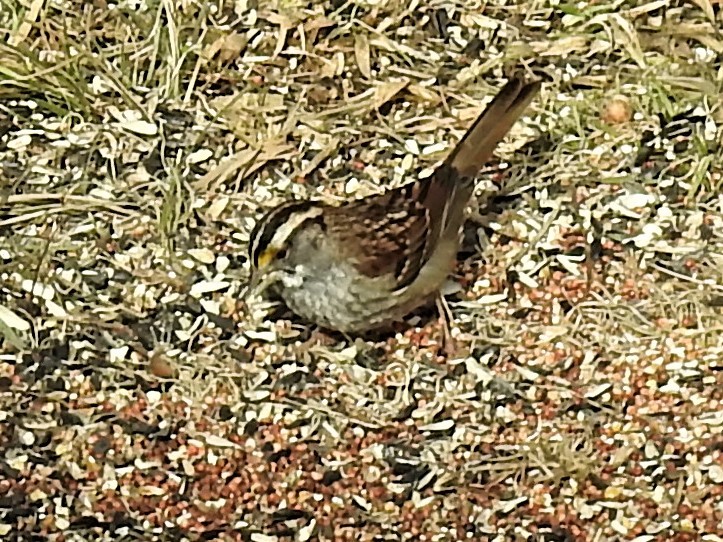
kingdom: Animalia
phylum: Chordata
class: Aves
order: Passeriformes
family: Passerellidae
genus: Zonotrichia
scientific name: Zonotrichia albicollis
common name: White-throated sparrow
